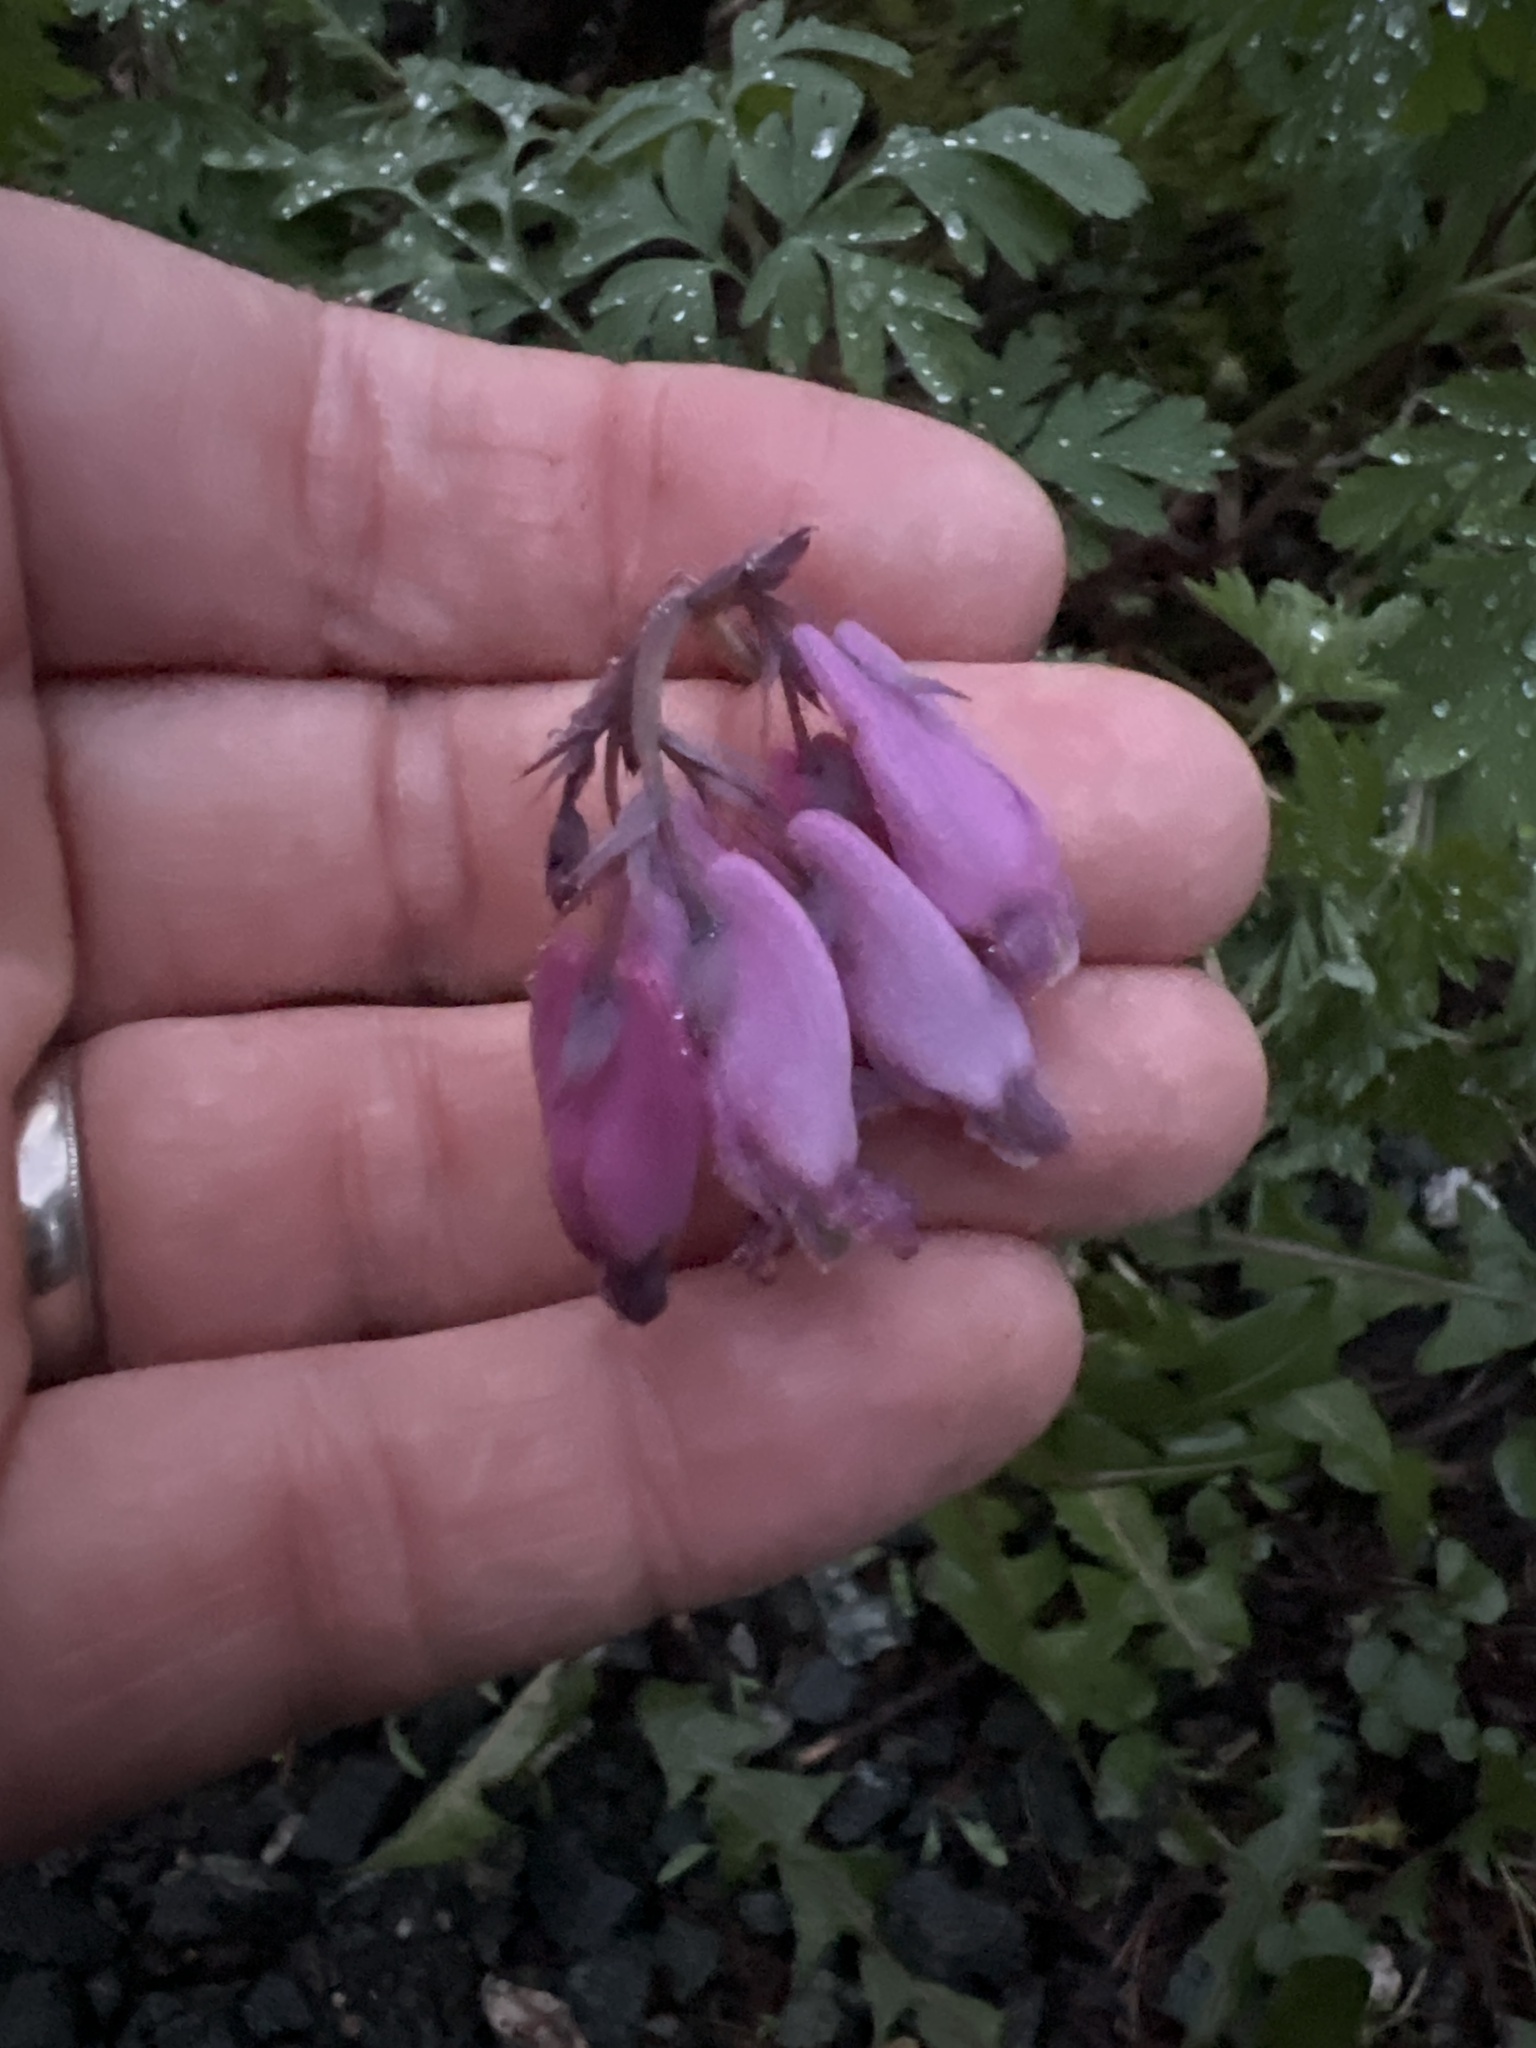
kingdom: Plantae
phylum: Tracheophyta
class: Magnoliopsida
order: Ranunculales
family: Papaveraceae
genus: Dicentra
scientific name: Dicentra formosa
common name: Bleeding-heart
